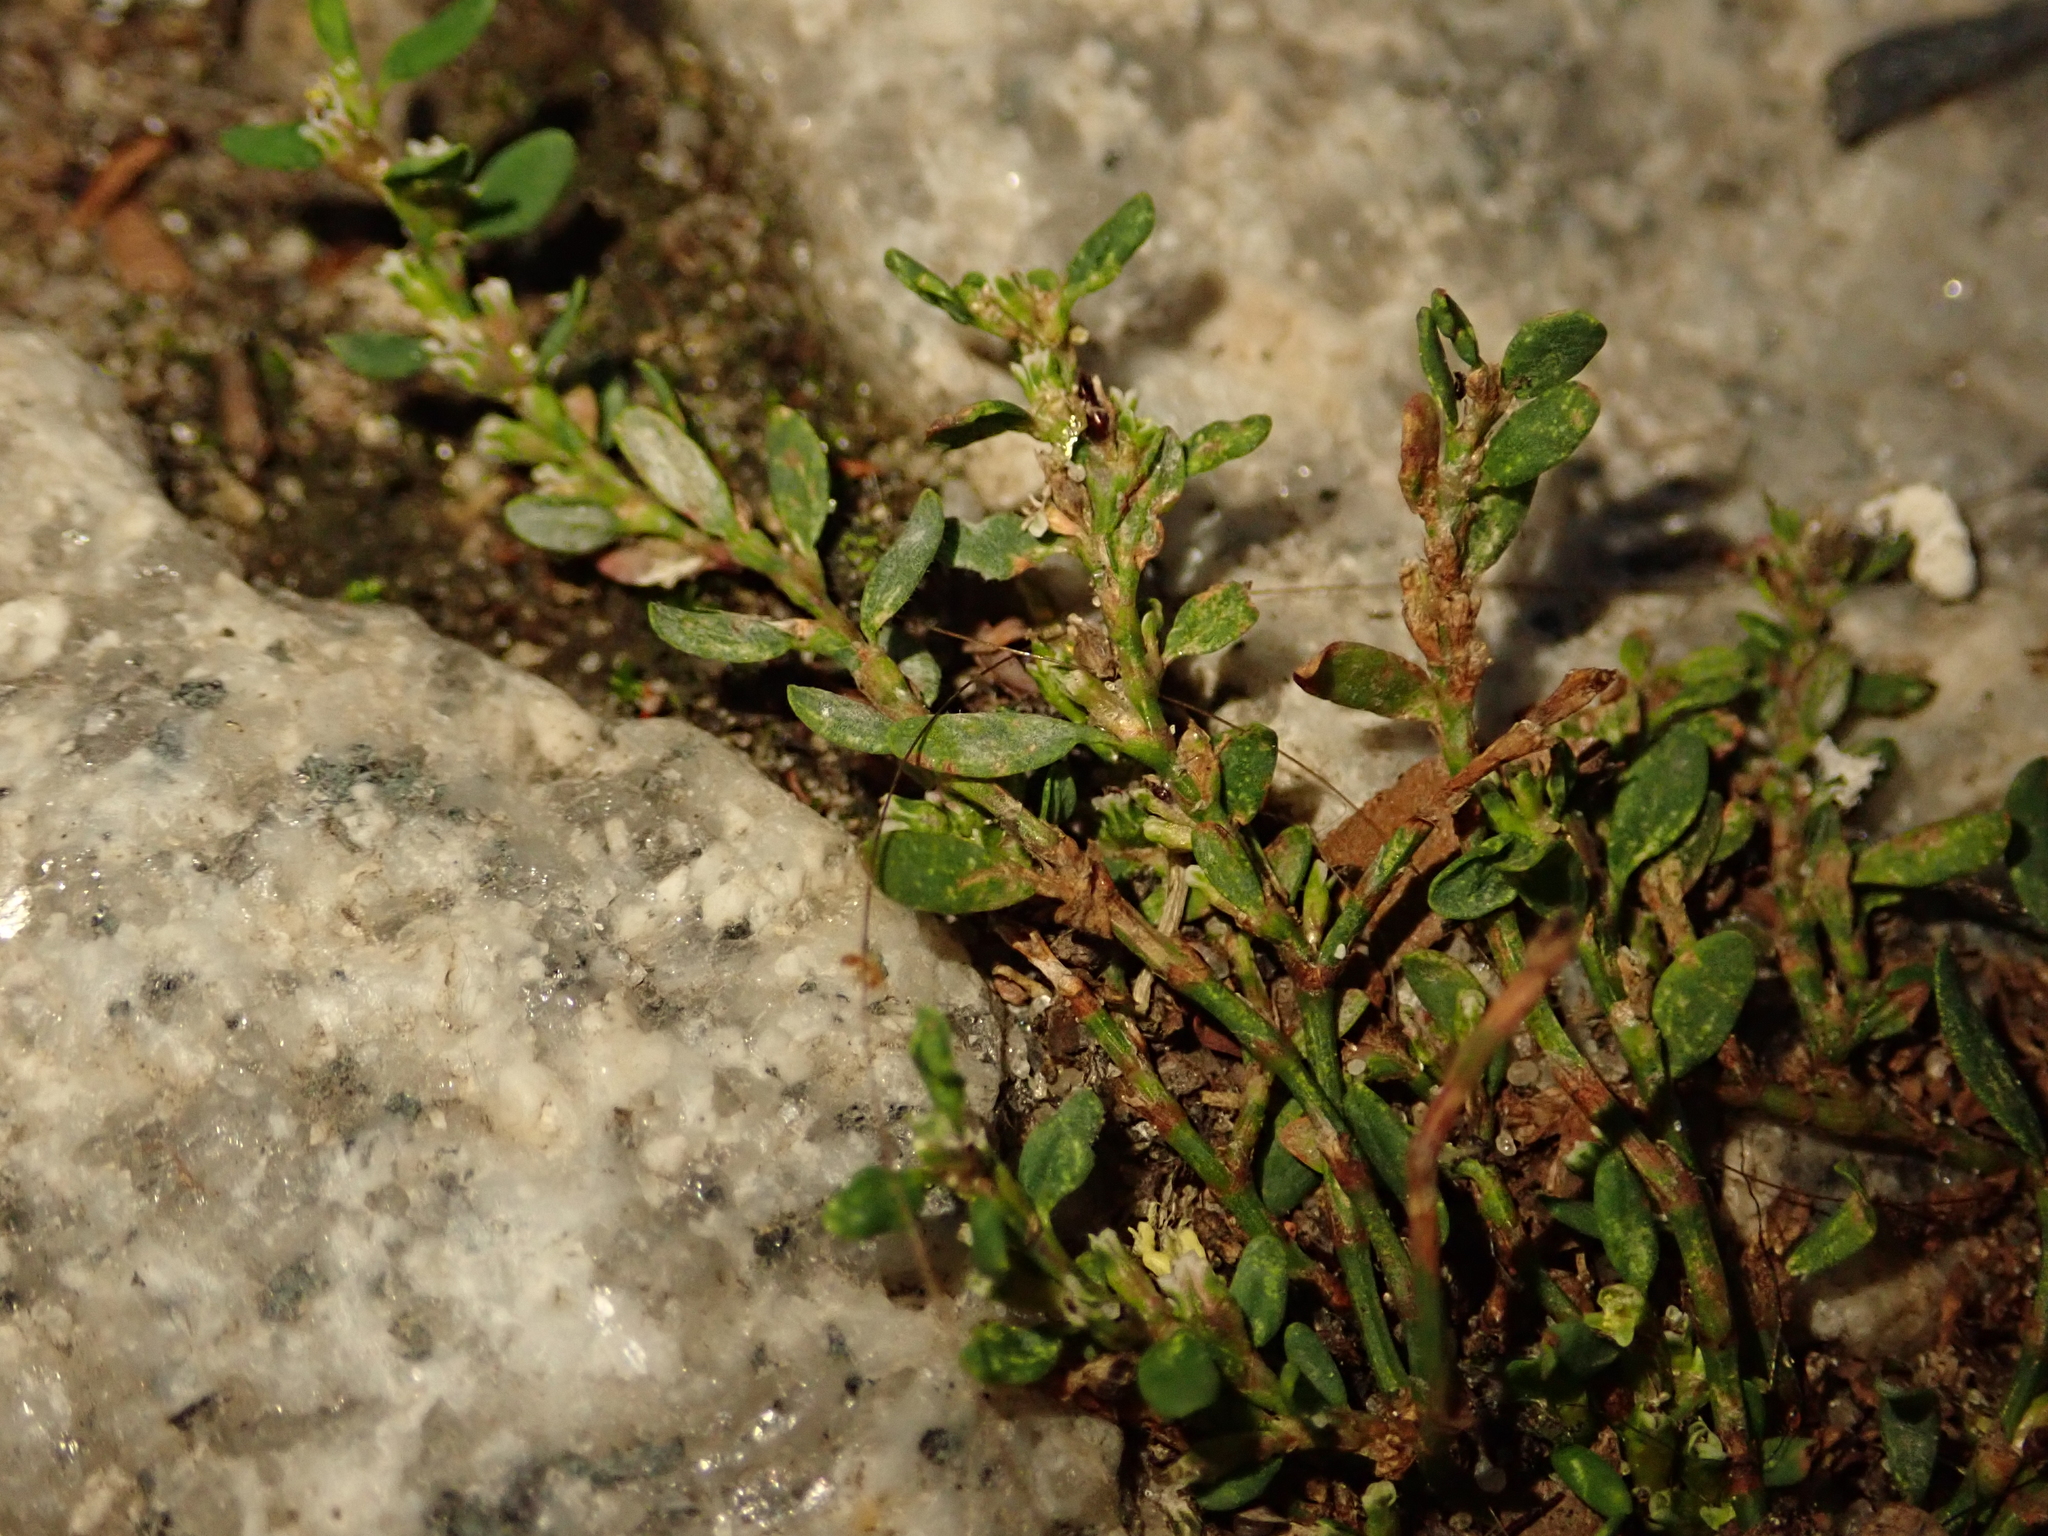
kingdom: Plantae
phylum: Tracheophyta
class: Magnoliopsida
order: Caryophyllales
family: Polygonaceae
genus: Polygonum
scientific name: Polygonum aviculare
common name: Prostrate knotweed
